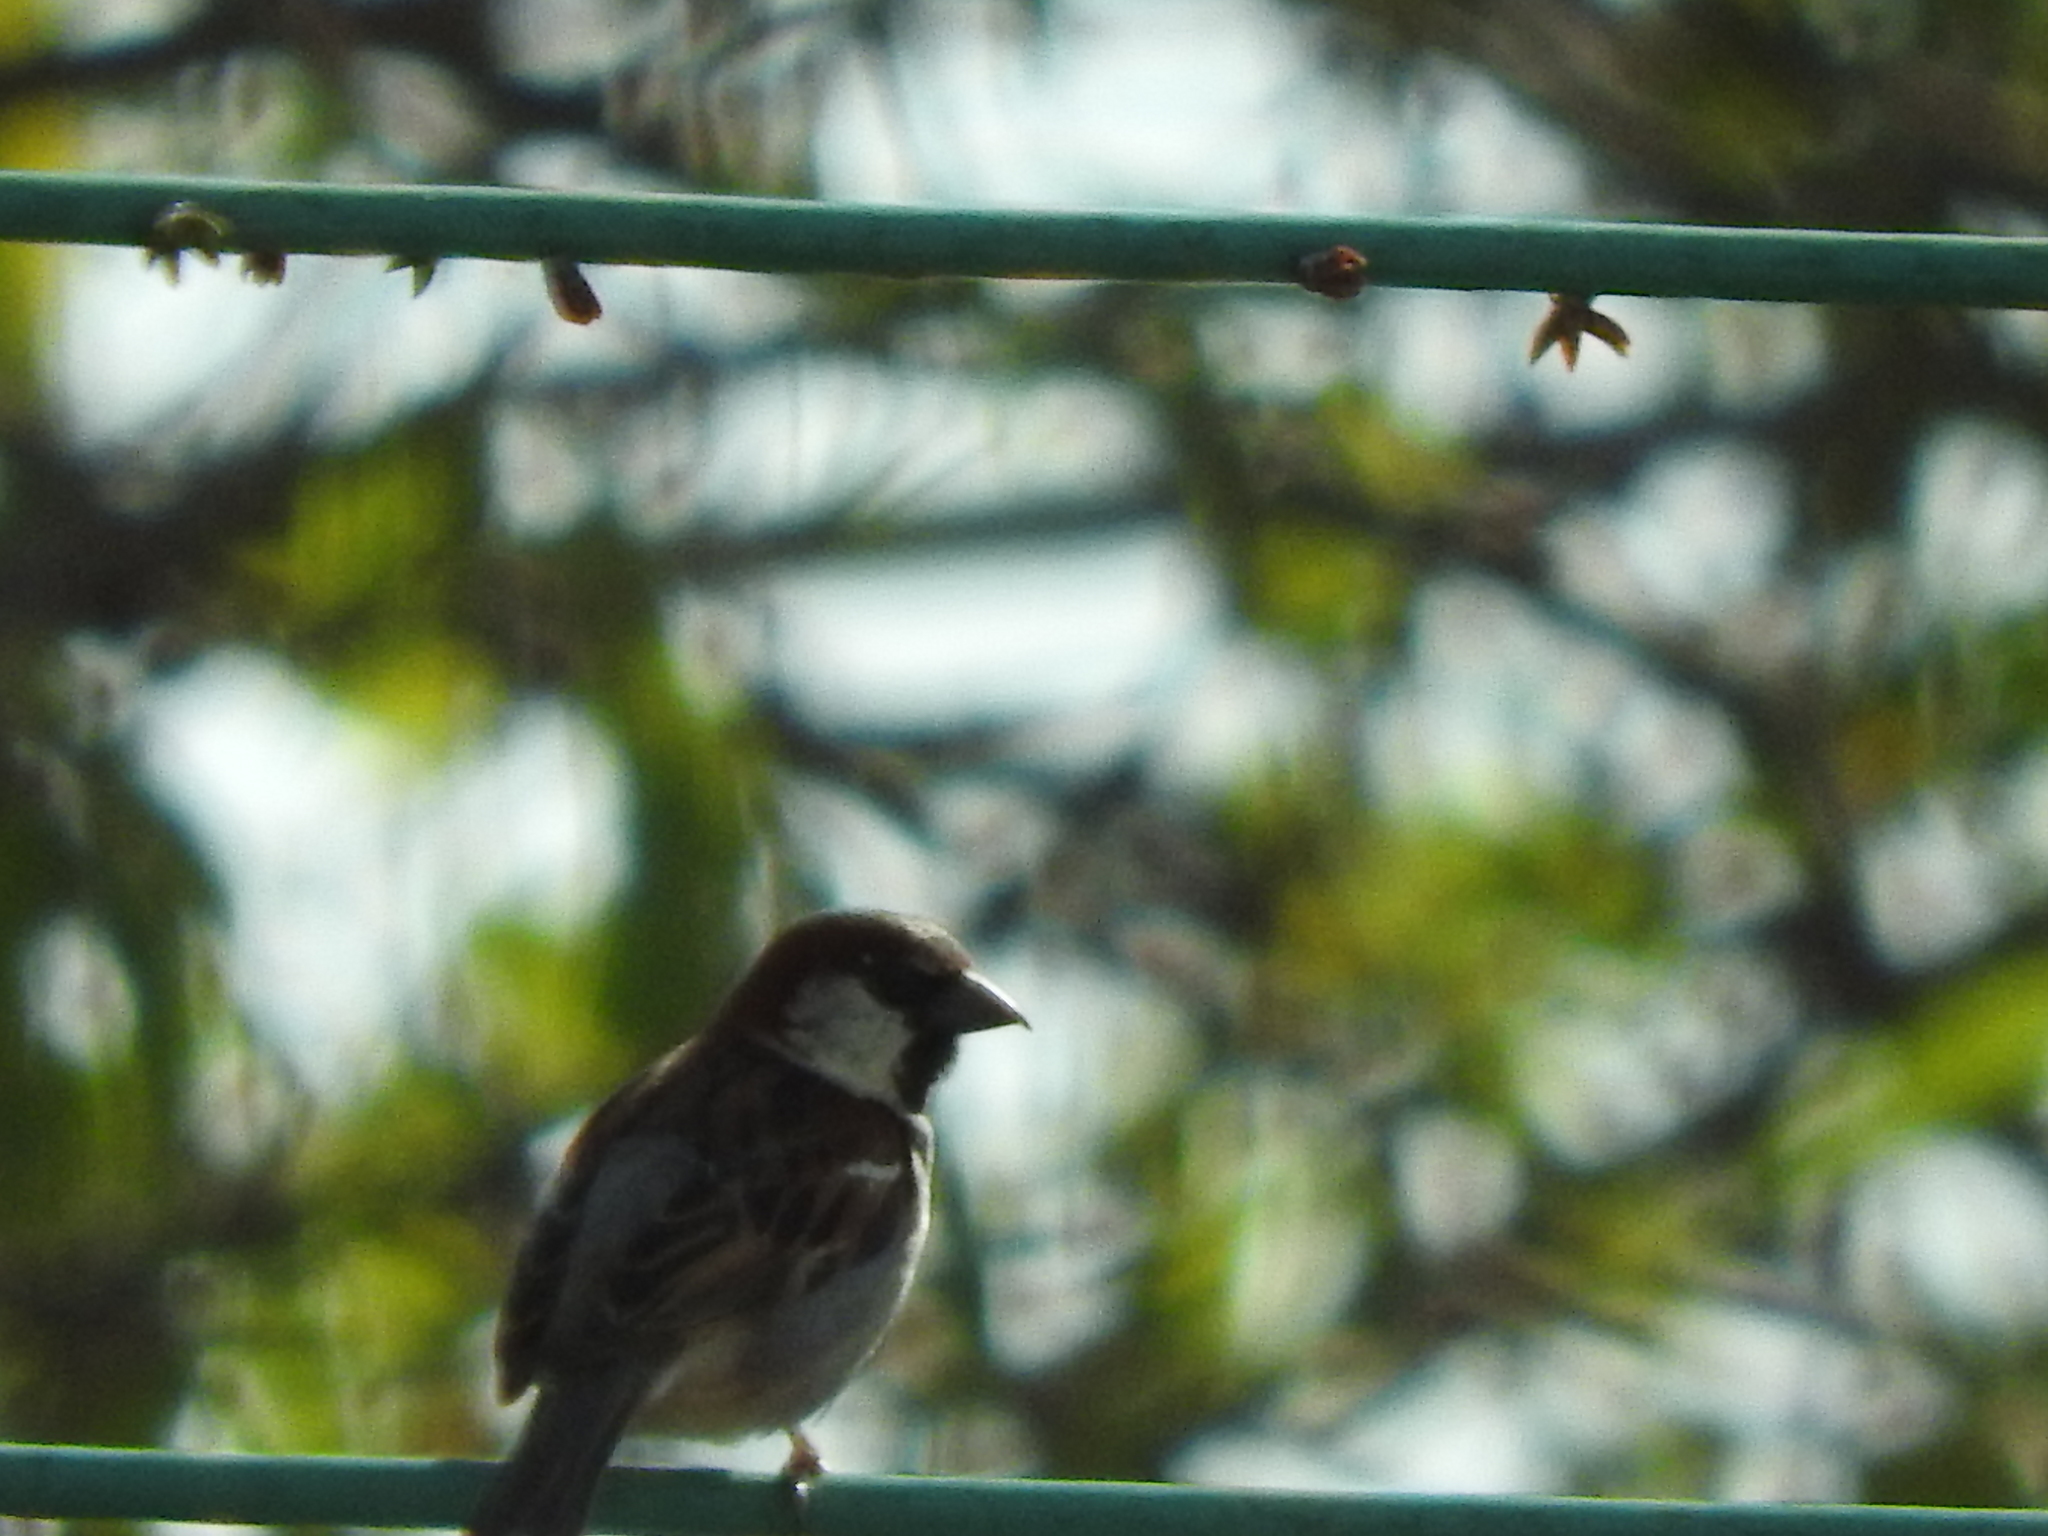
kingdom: Animalia
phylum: Chordata
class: Aves
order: Passeriformes
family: Passeridae
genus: Passer
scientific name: Passer domesticus
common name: House sparrow
